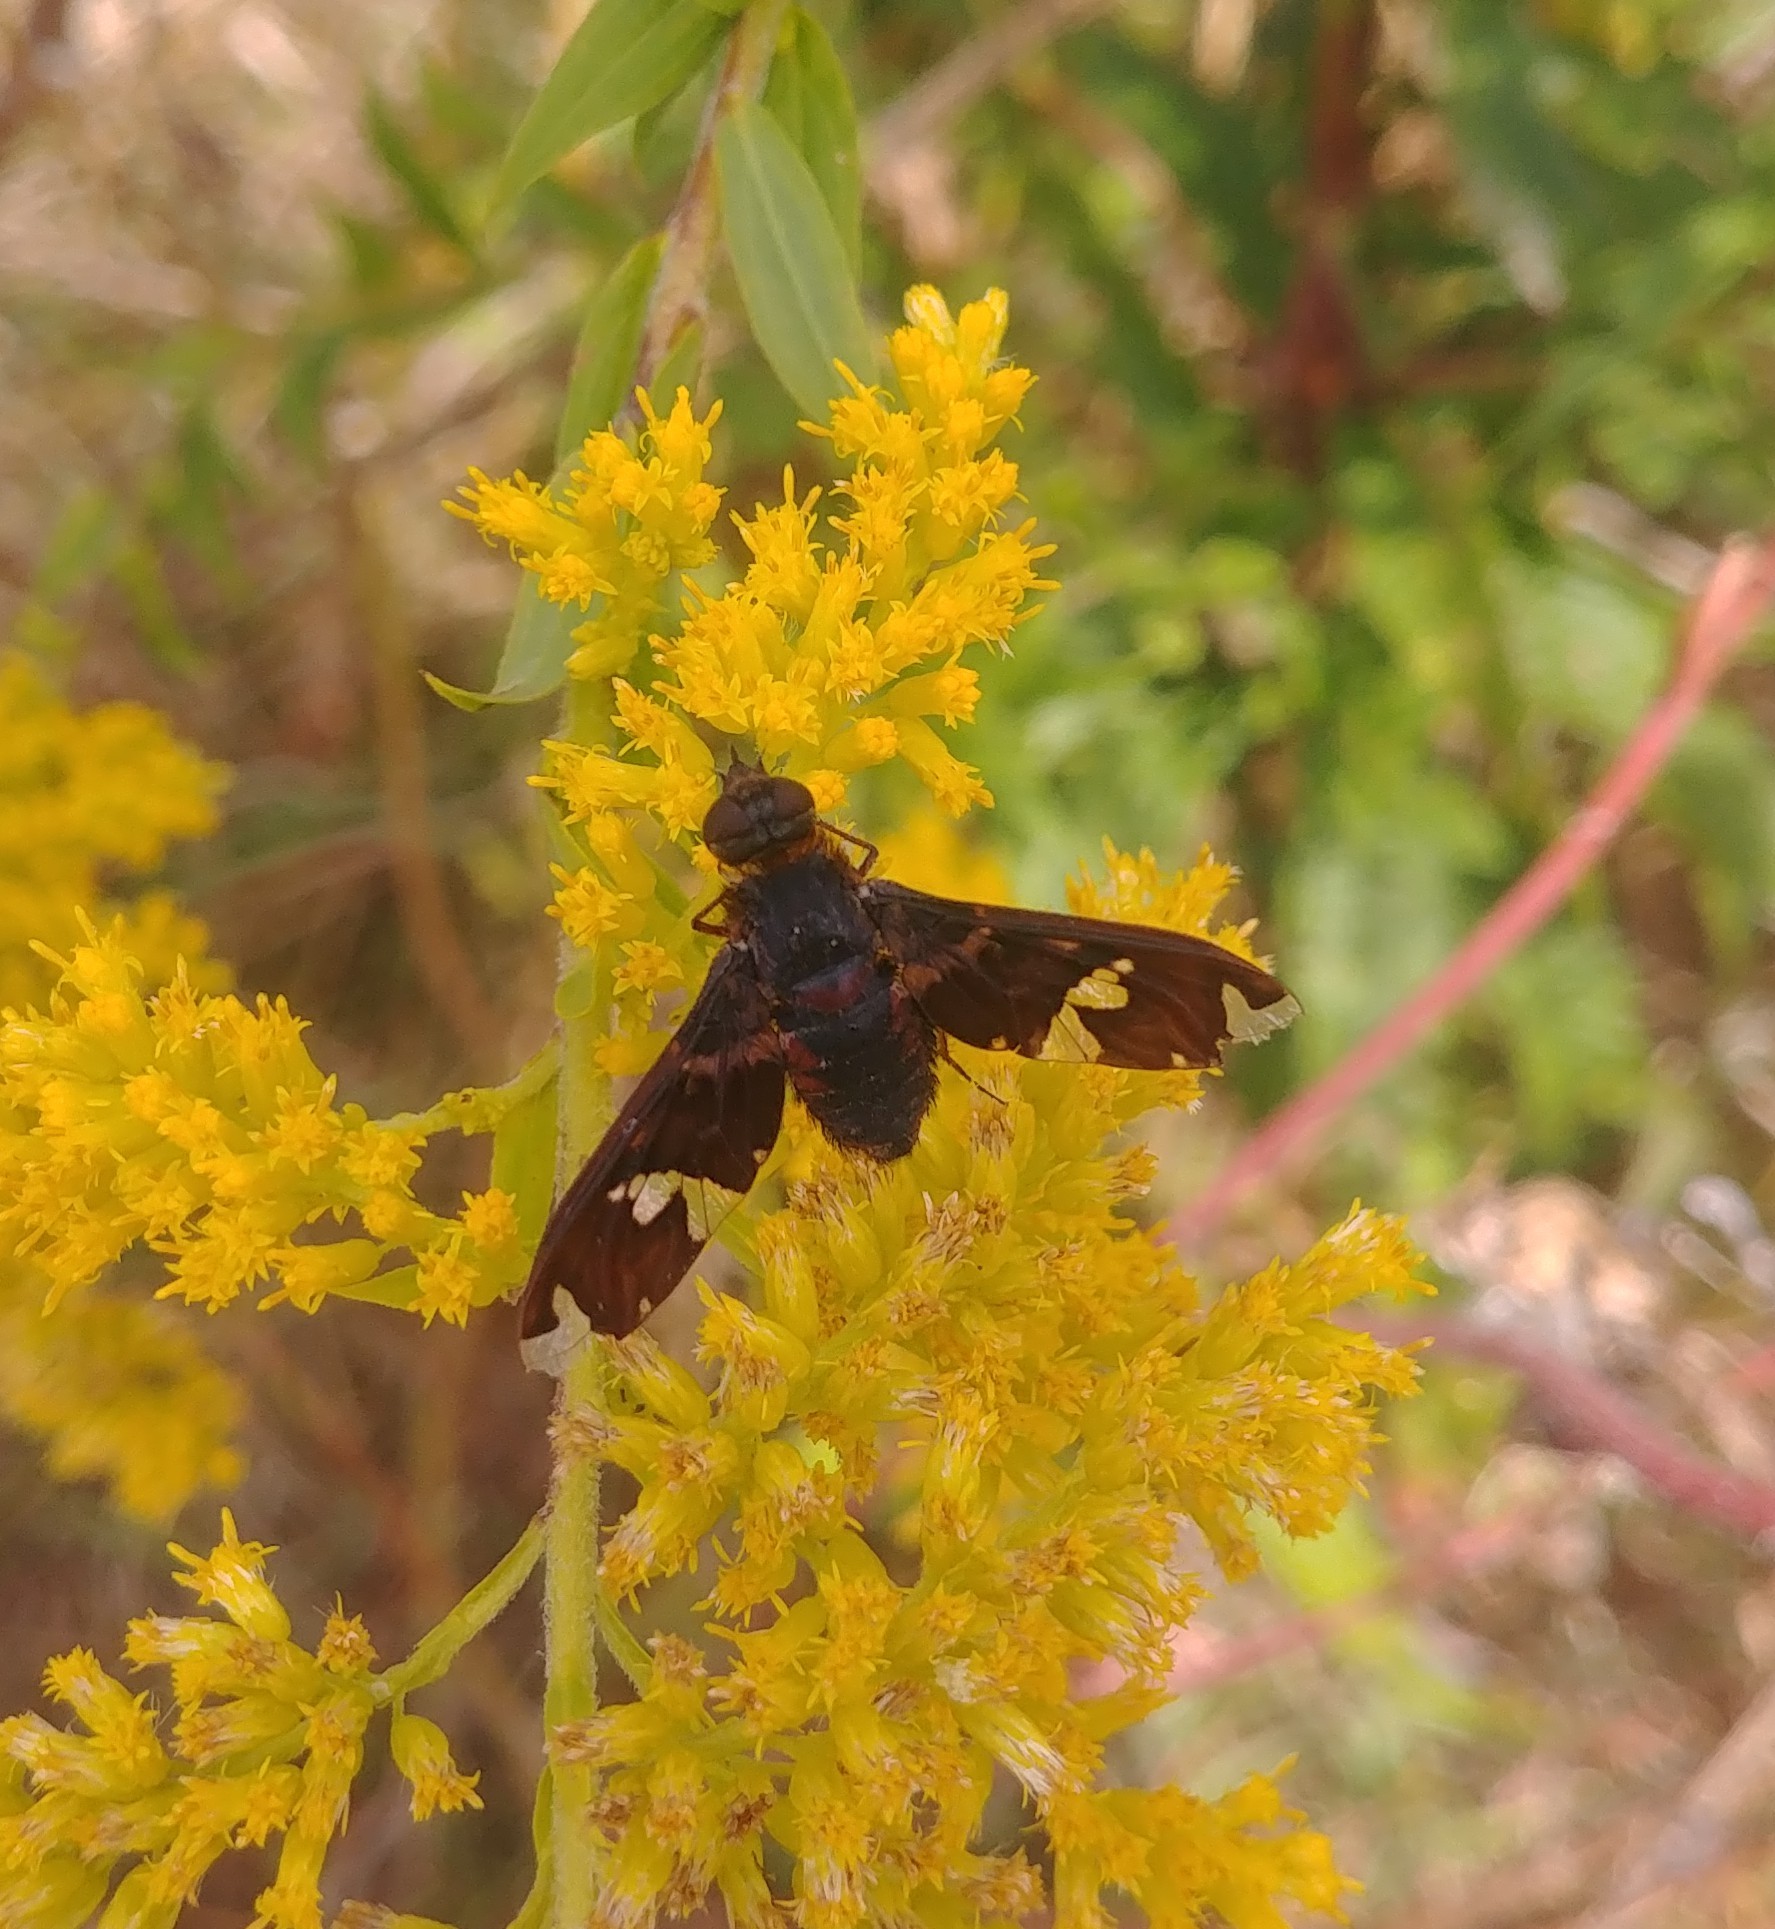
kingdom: Animalia
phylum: Arthropoda
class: Insecta
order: Diptera
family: Bombyliidae
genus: Exoprosopa
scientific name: Exoprosopa decora
